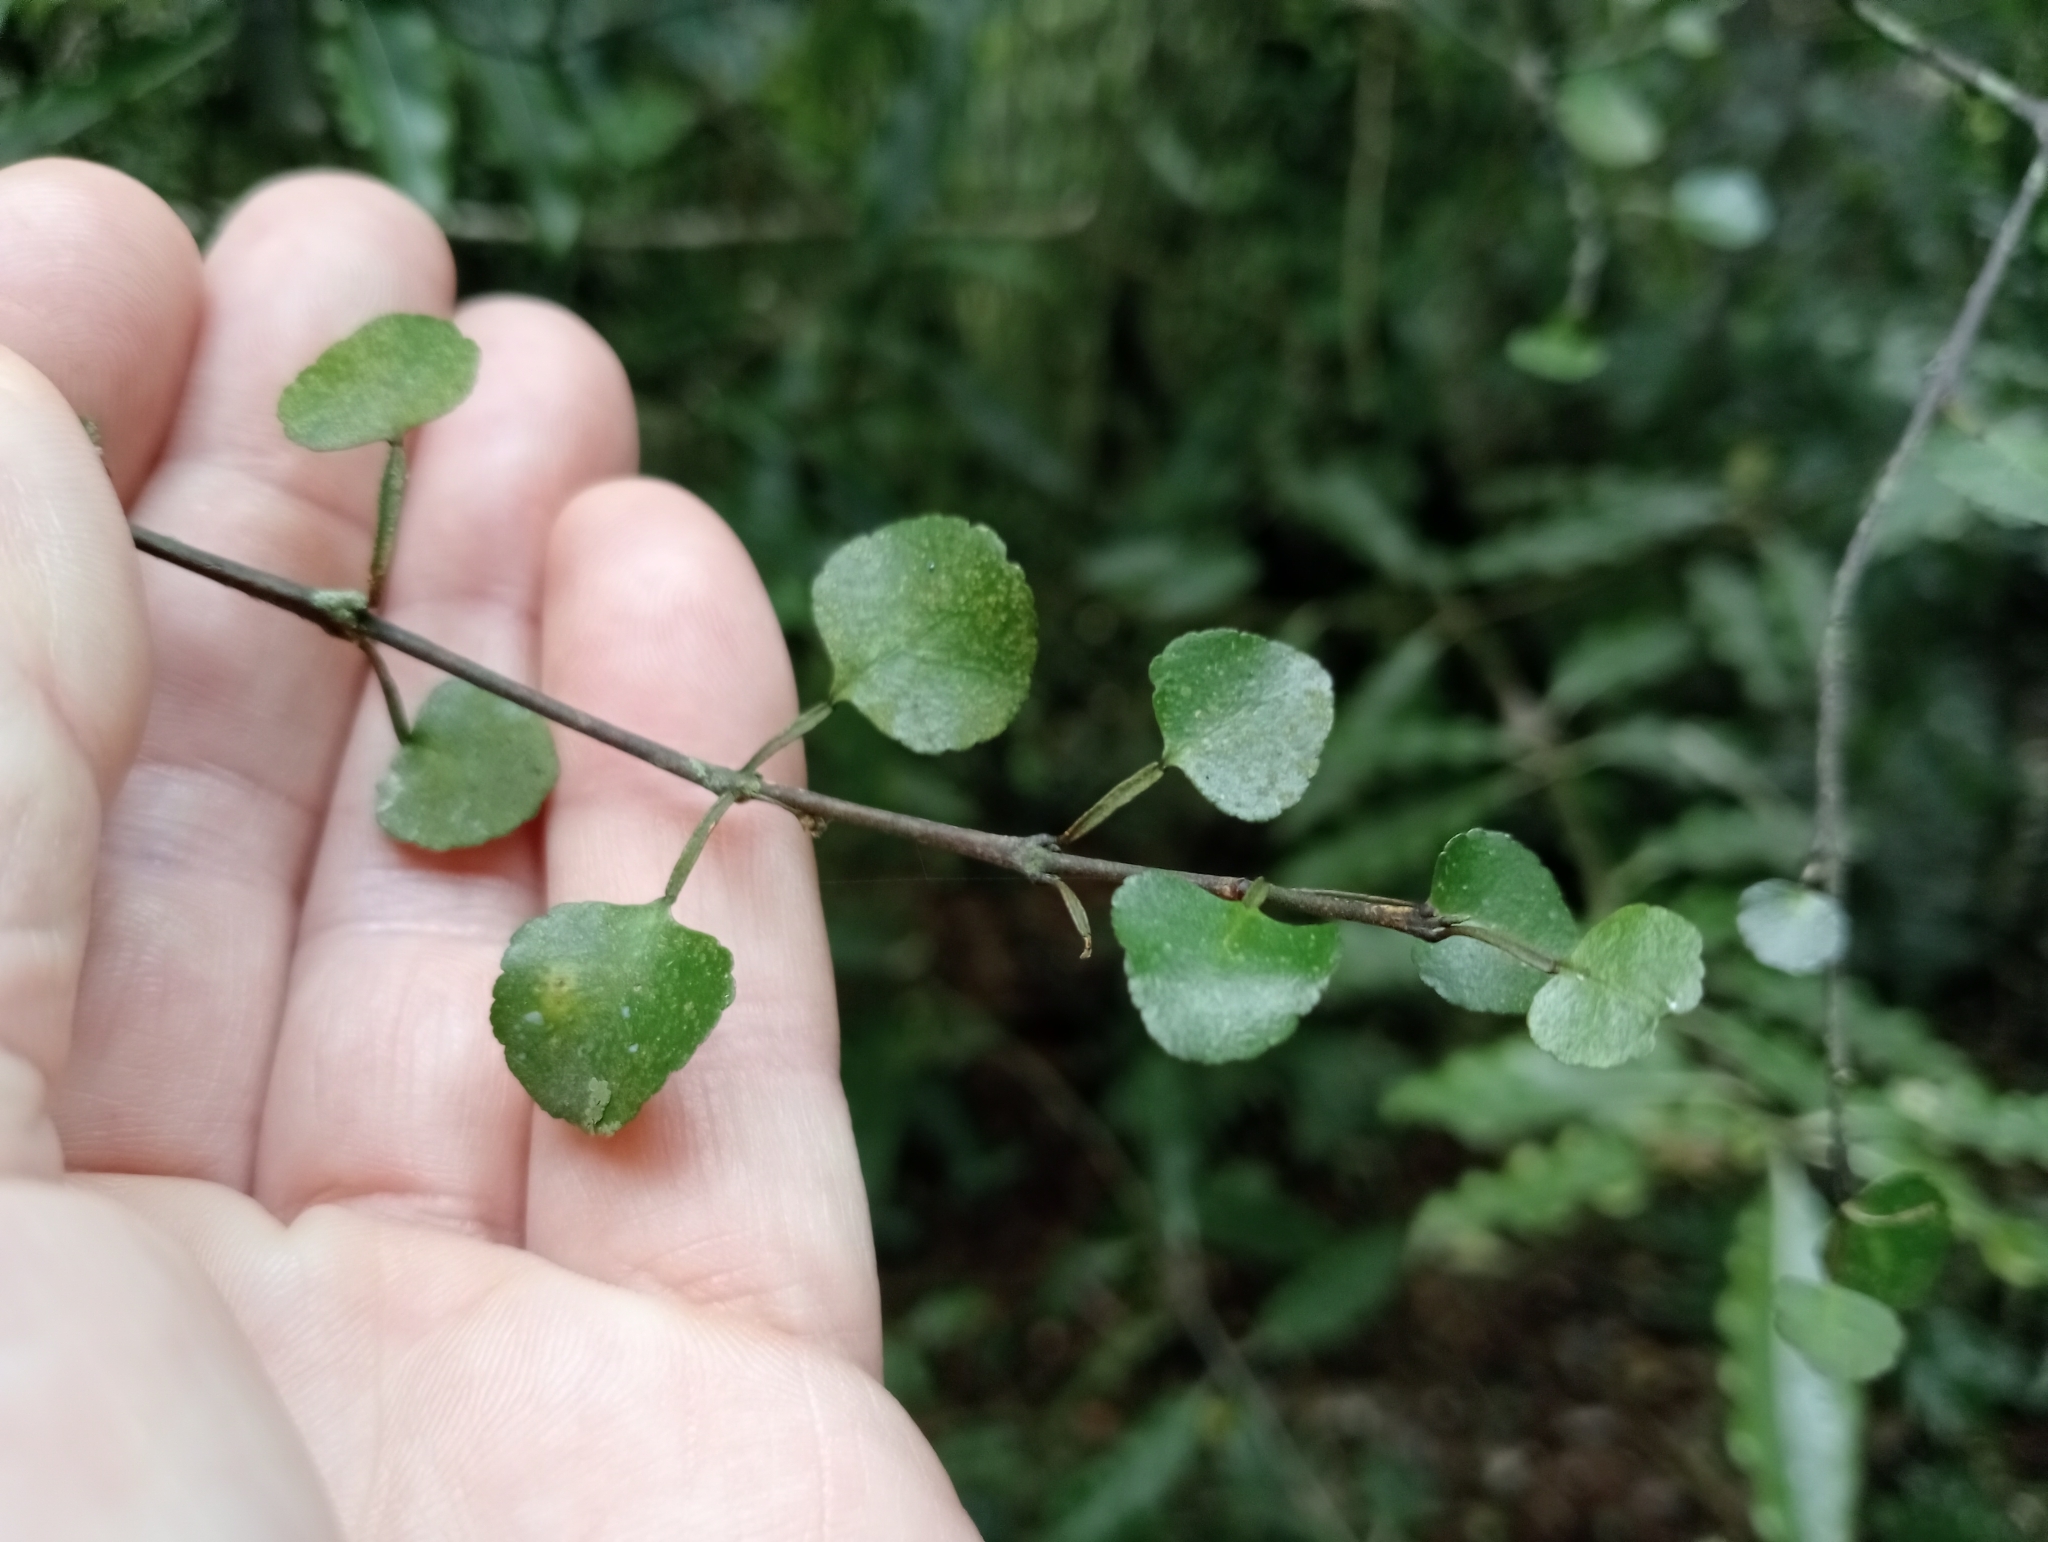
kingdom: Plantae
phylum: Tracheophyta
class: Magnoliopsida
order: Sapindales
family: Rutaceae
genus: Melicope
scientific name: Melicope simplex
